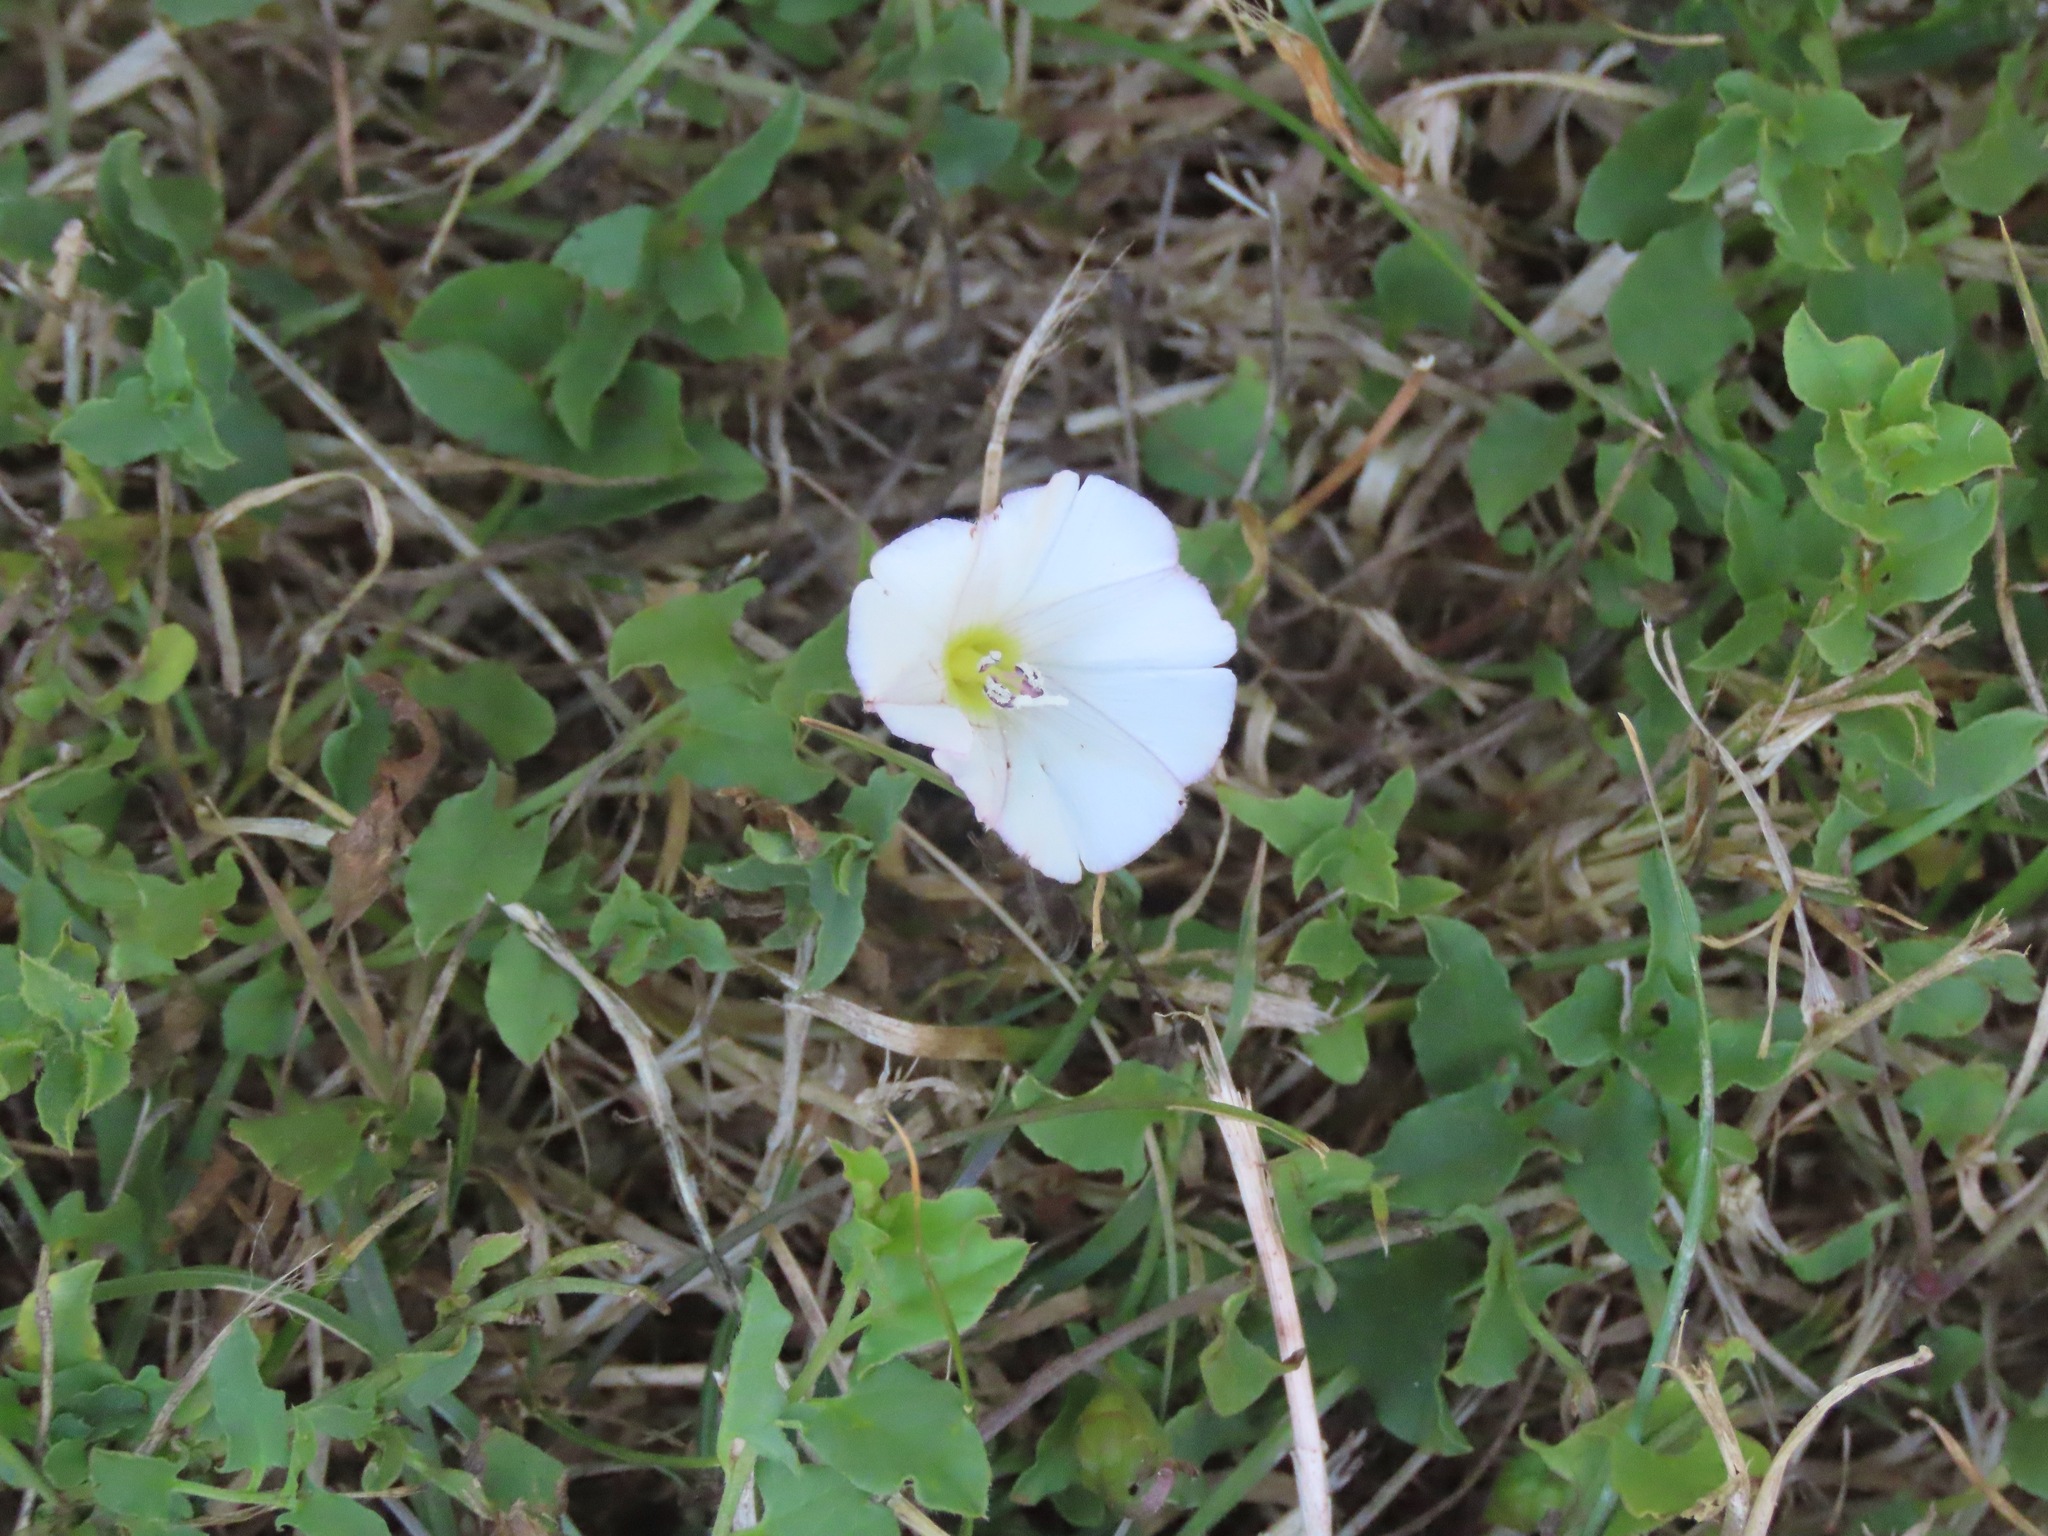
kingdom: Plantae
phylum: Tracheophyta
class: Magnoliopsida
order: Solanales
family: Convolvulaceae
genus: Convolvulus
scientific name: Convolvulus arvensis
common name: Field bindweed
